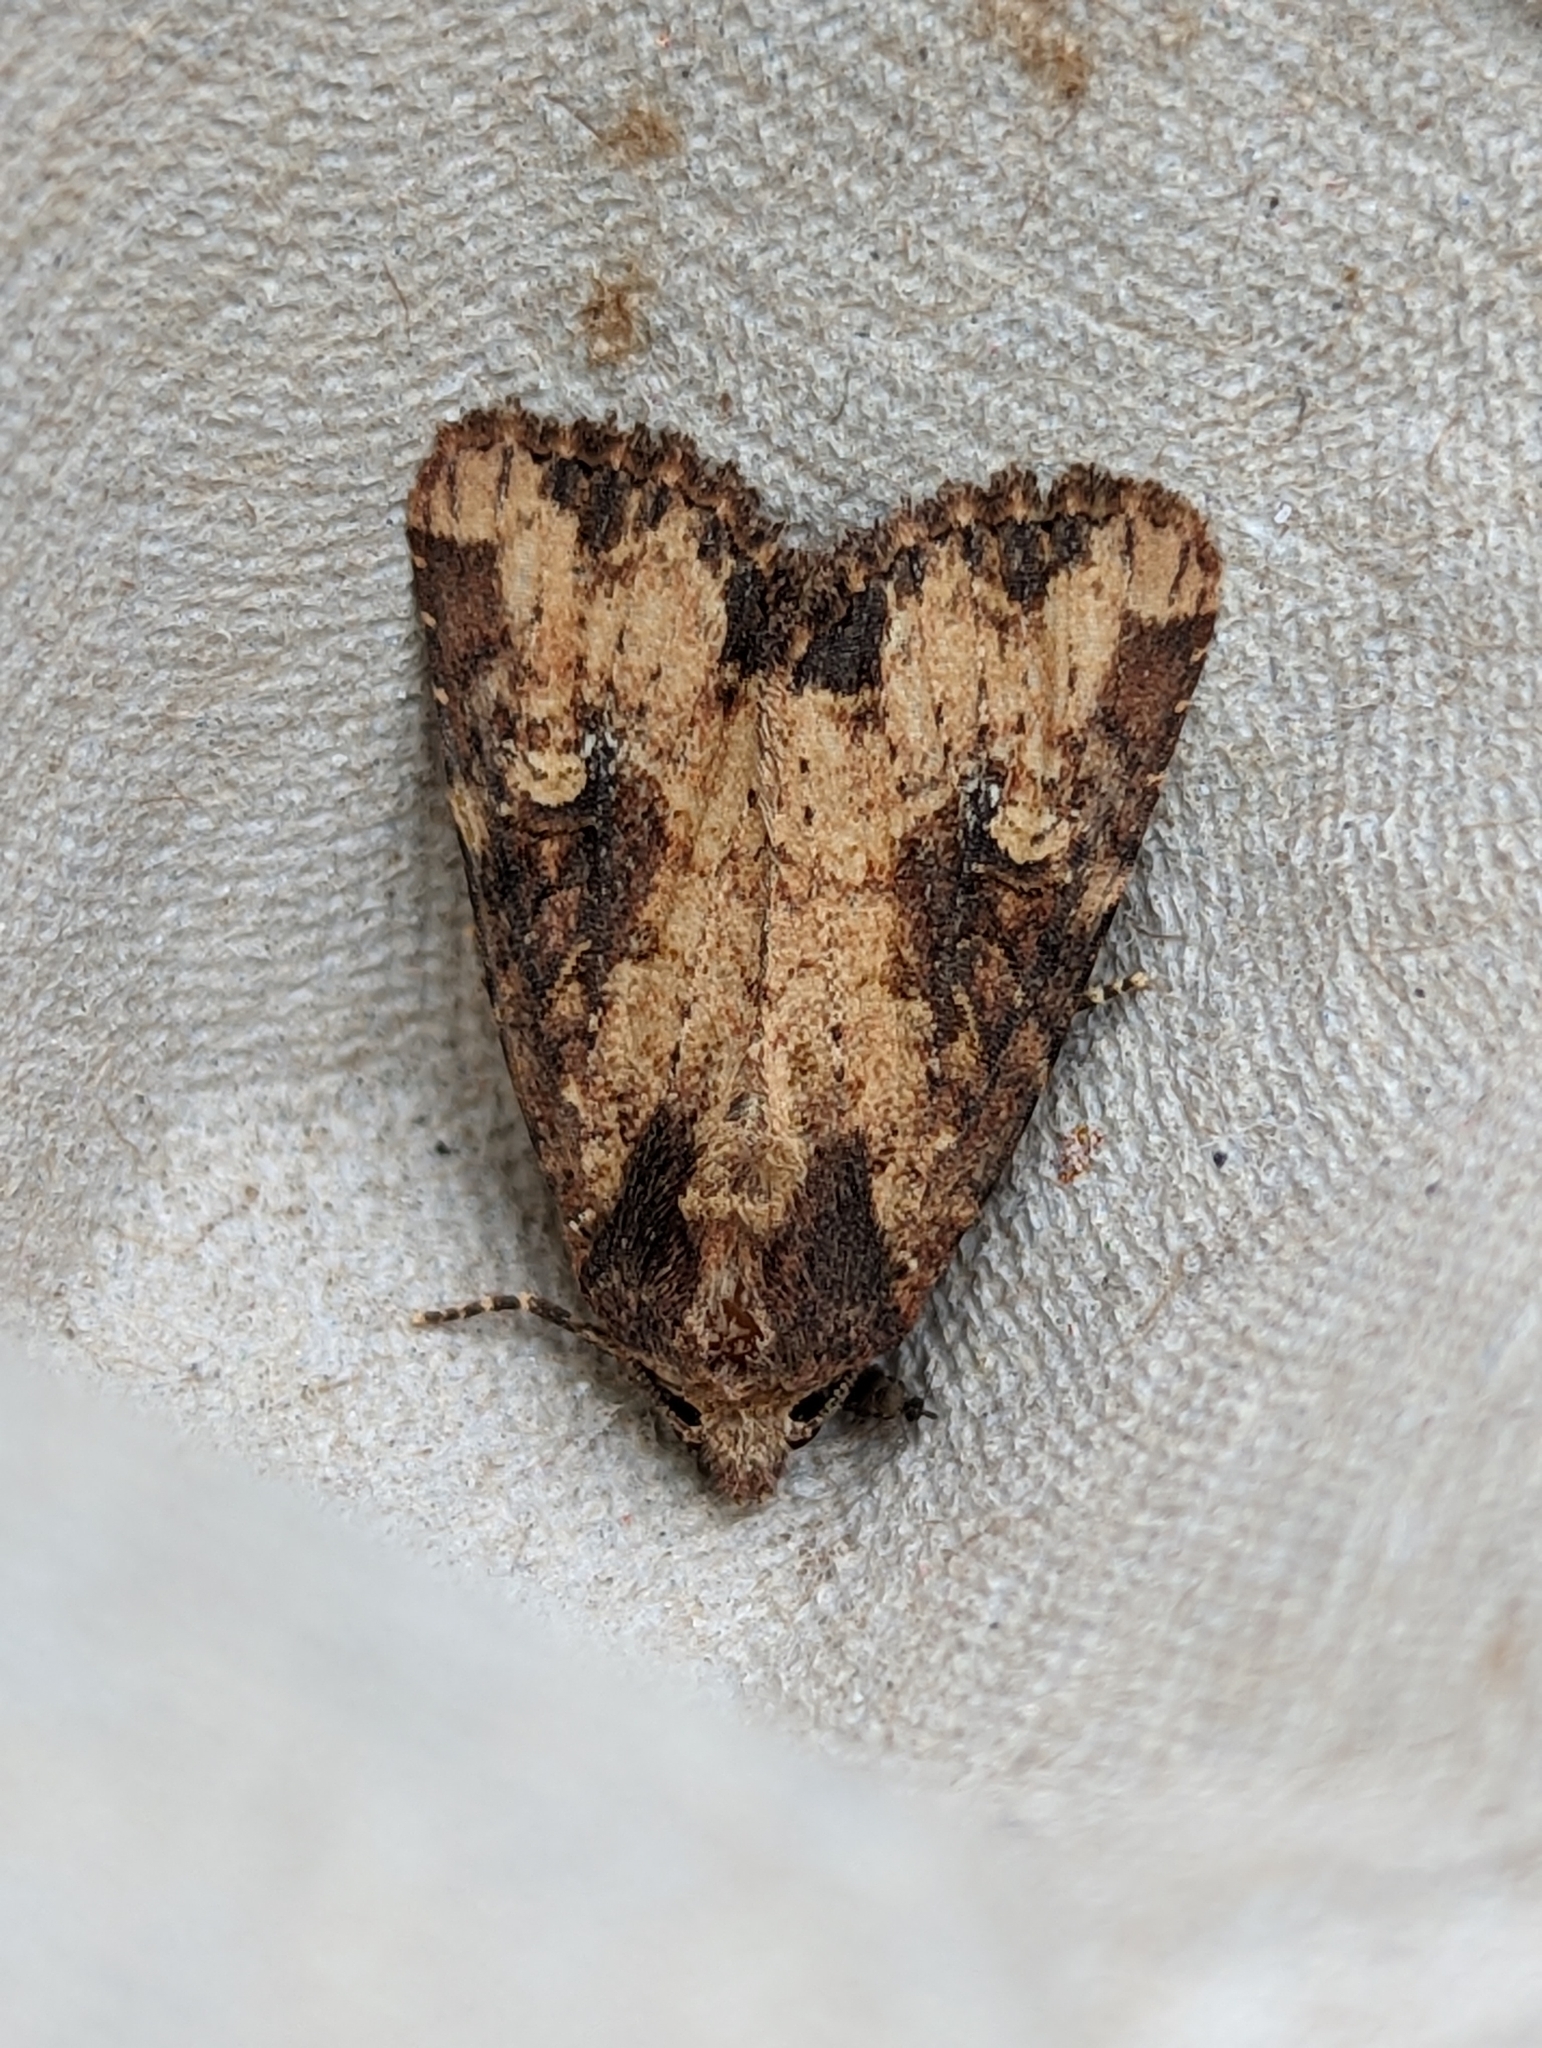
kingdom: Animalia
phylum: Arthropoda
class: Insecta
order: Lepidoptera
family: Noctuidae
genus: Mesapamea
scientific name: Mesapamea
